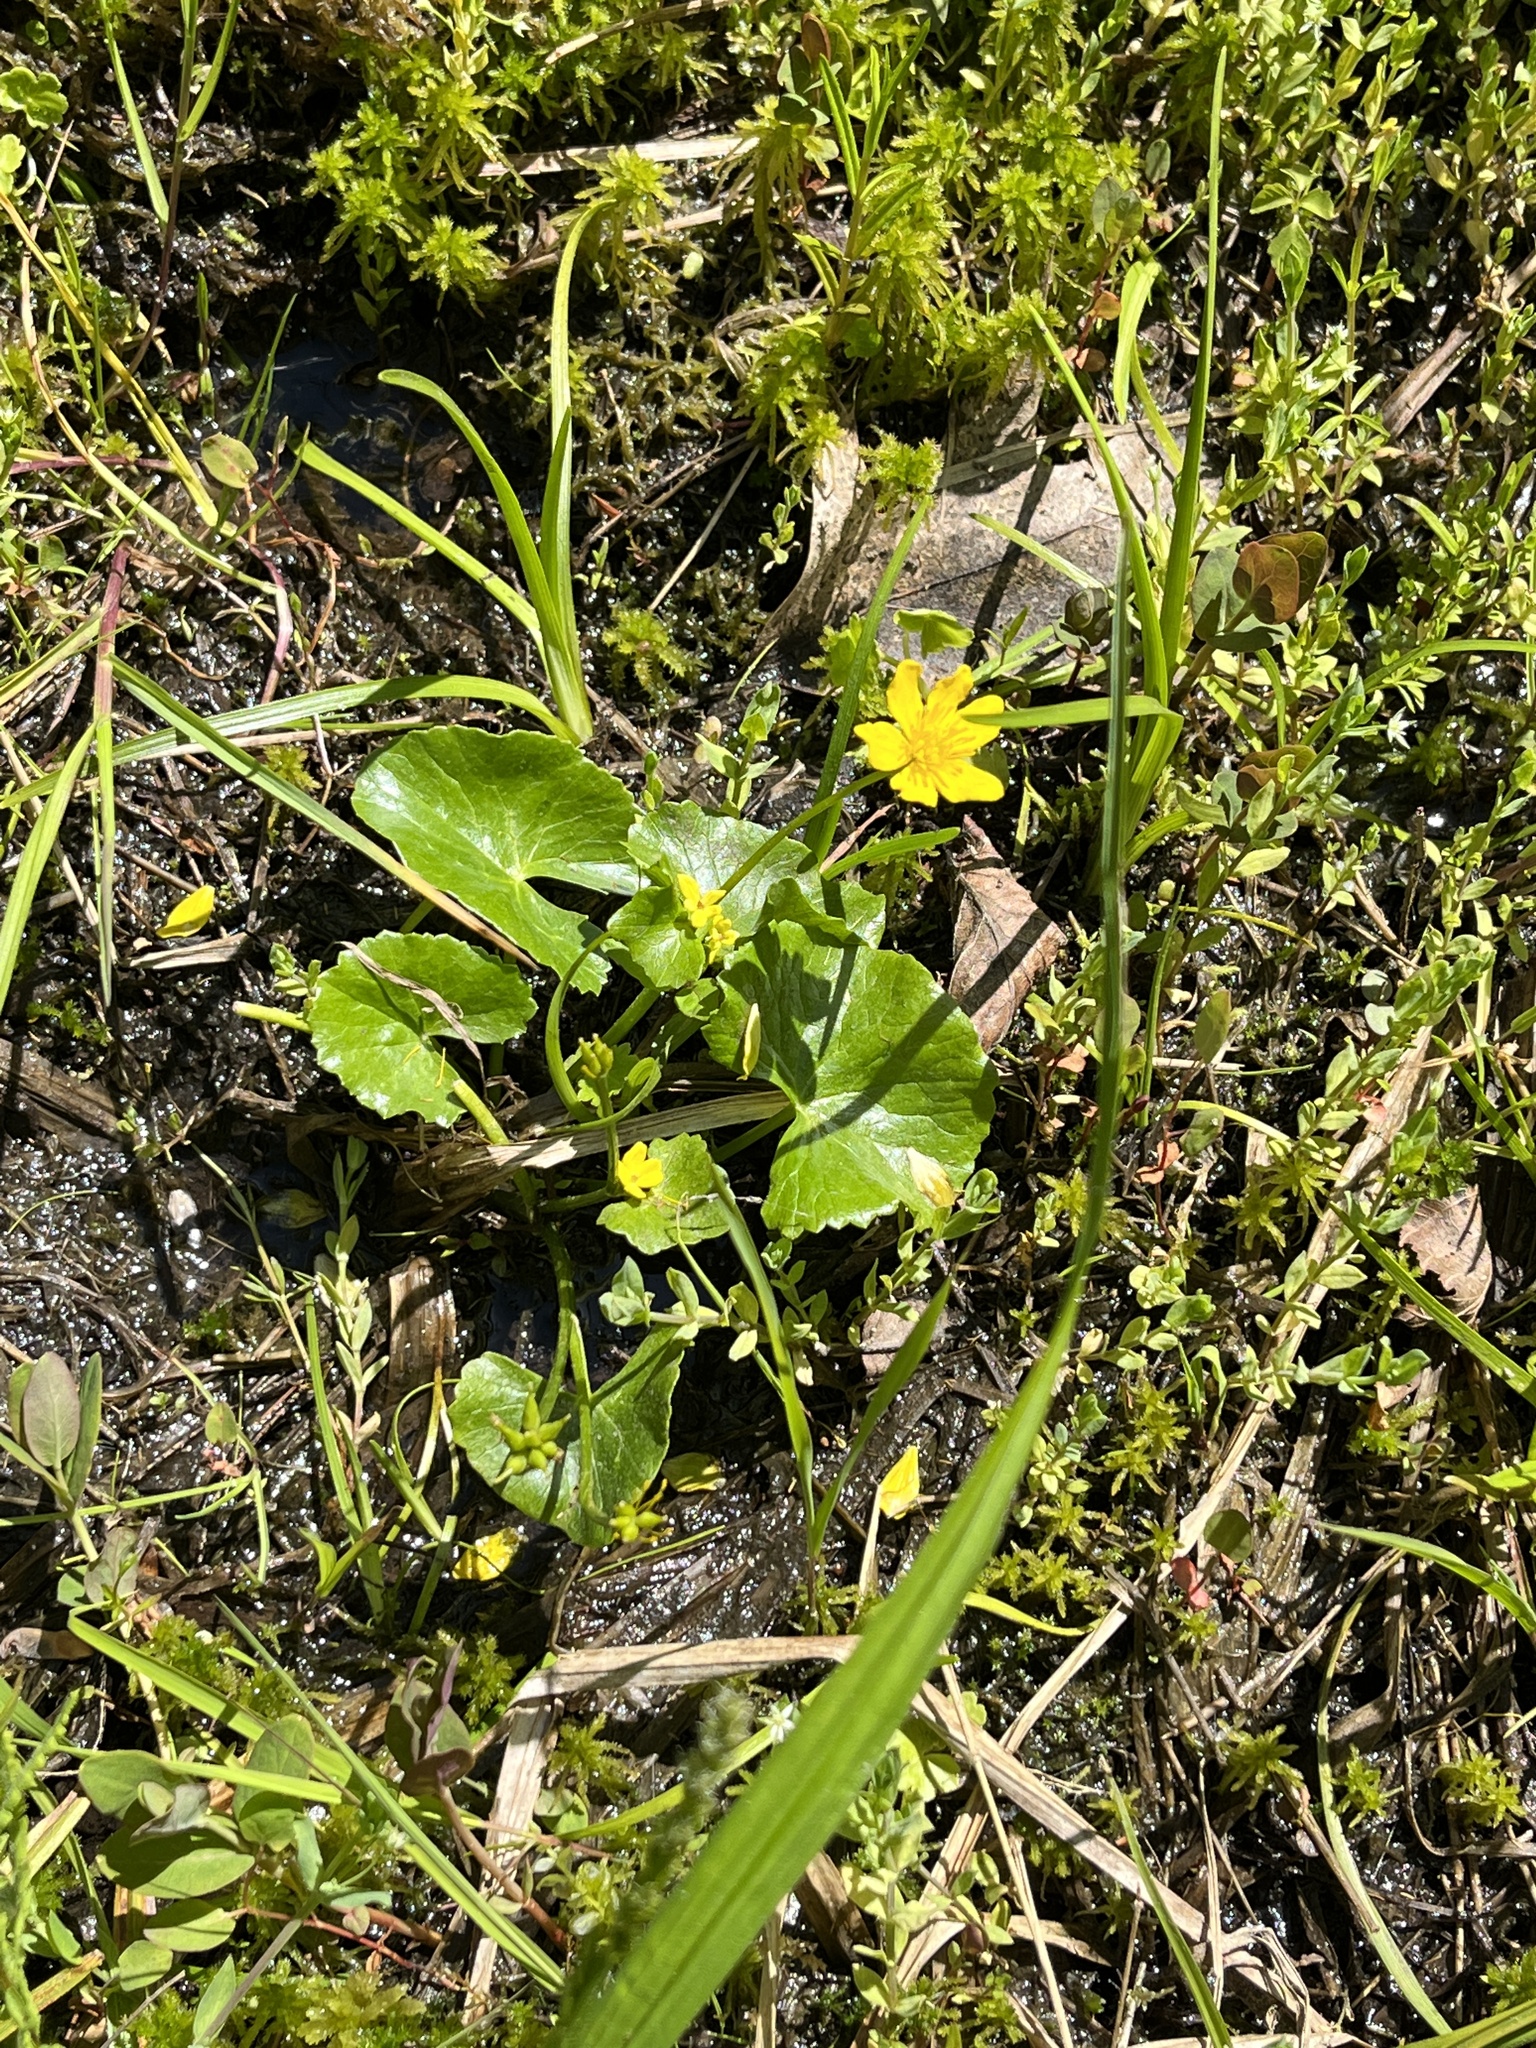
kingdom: Plantae
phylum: Tracheophyta
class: Magnoliopsida
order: Ranunculales
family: Ranunculaceae
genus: Caltha
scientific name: Caltha palustris
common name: Marsh marigold
